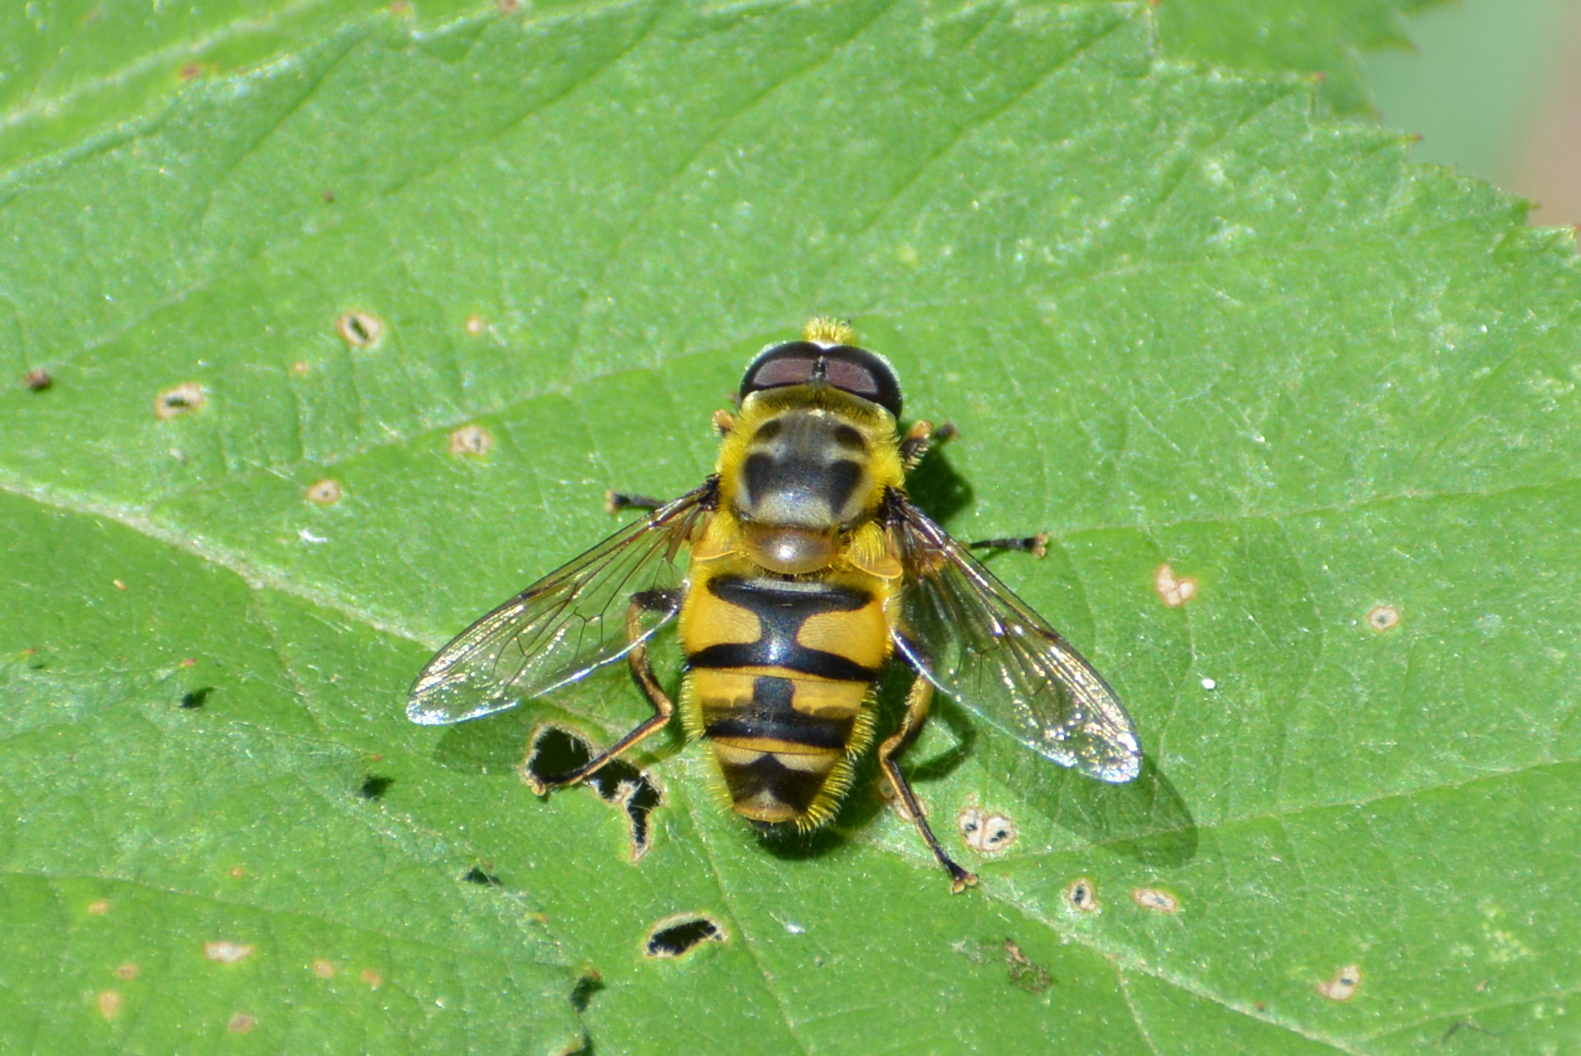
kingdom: Animalia
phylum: Arthropoda
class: Insecta
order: Diptera
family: Syrphidae
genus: Myathropa
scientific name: Myathropa florea
